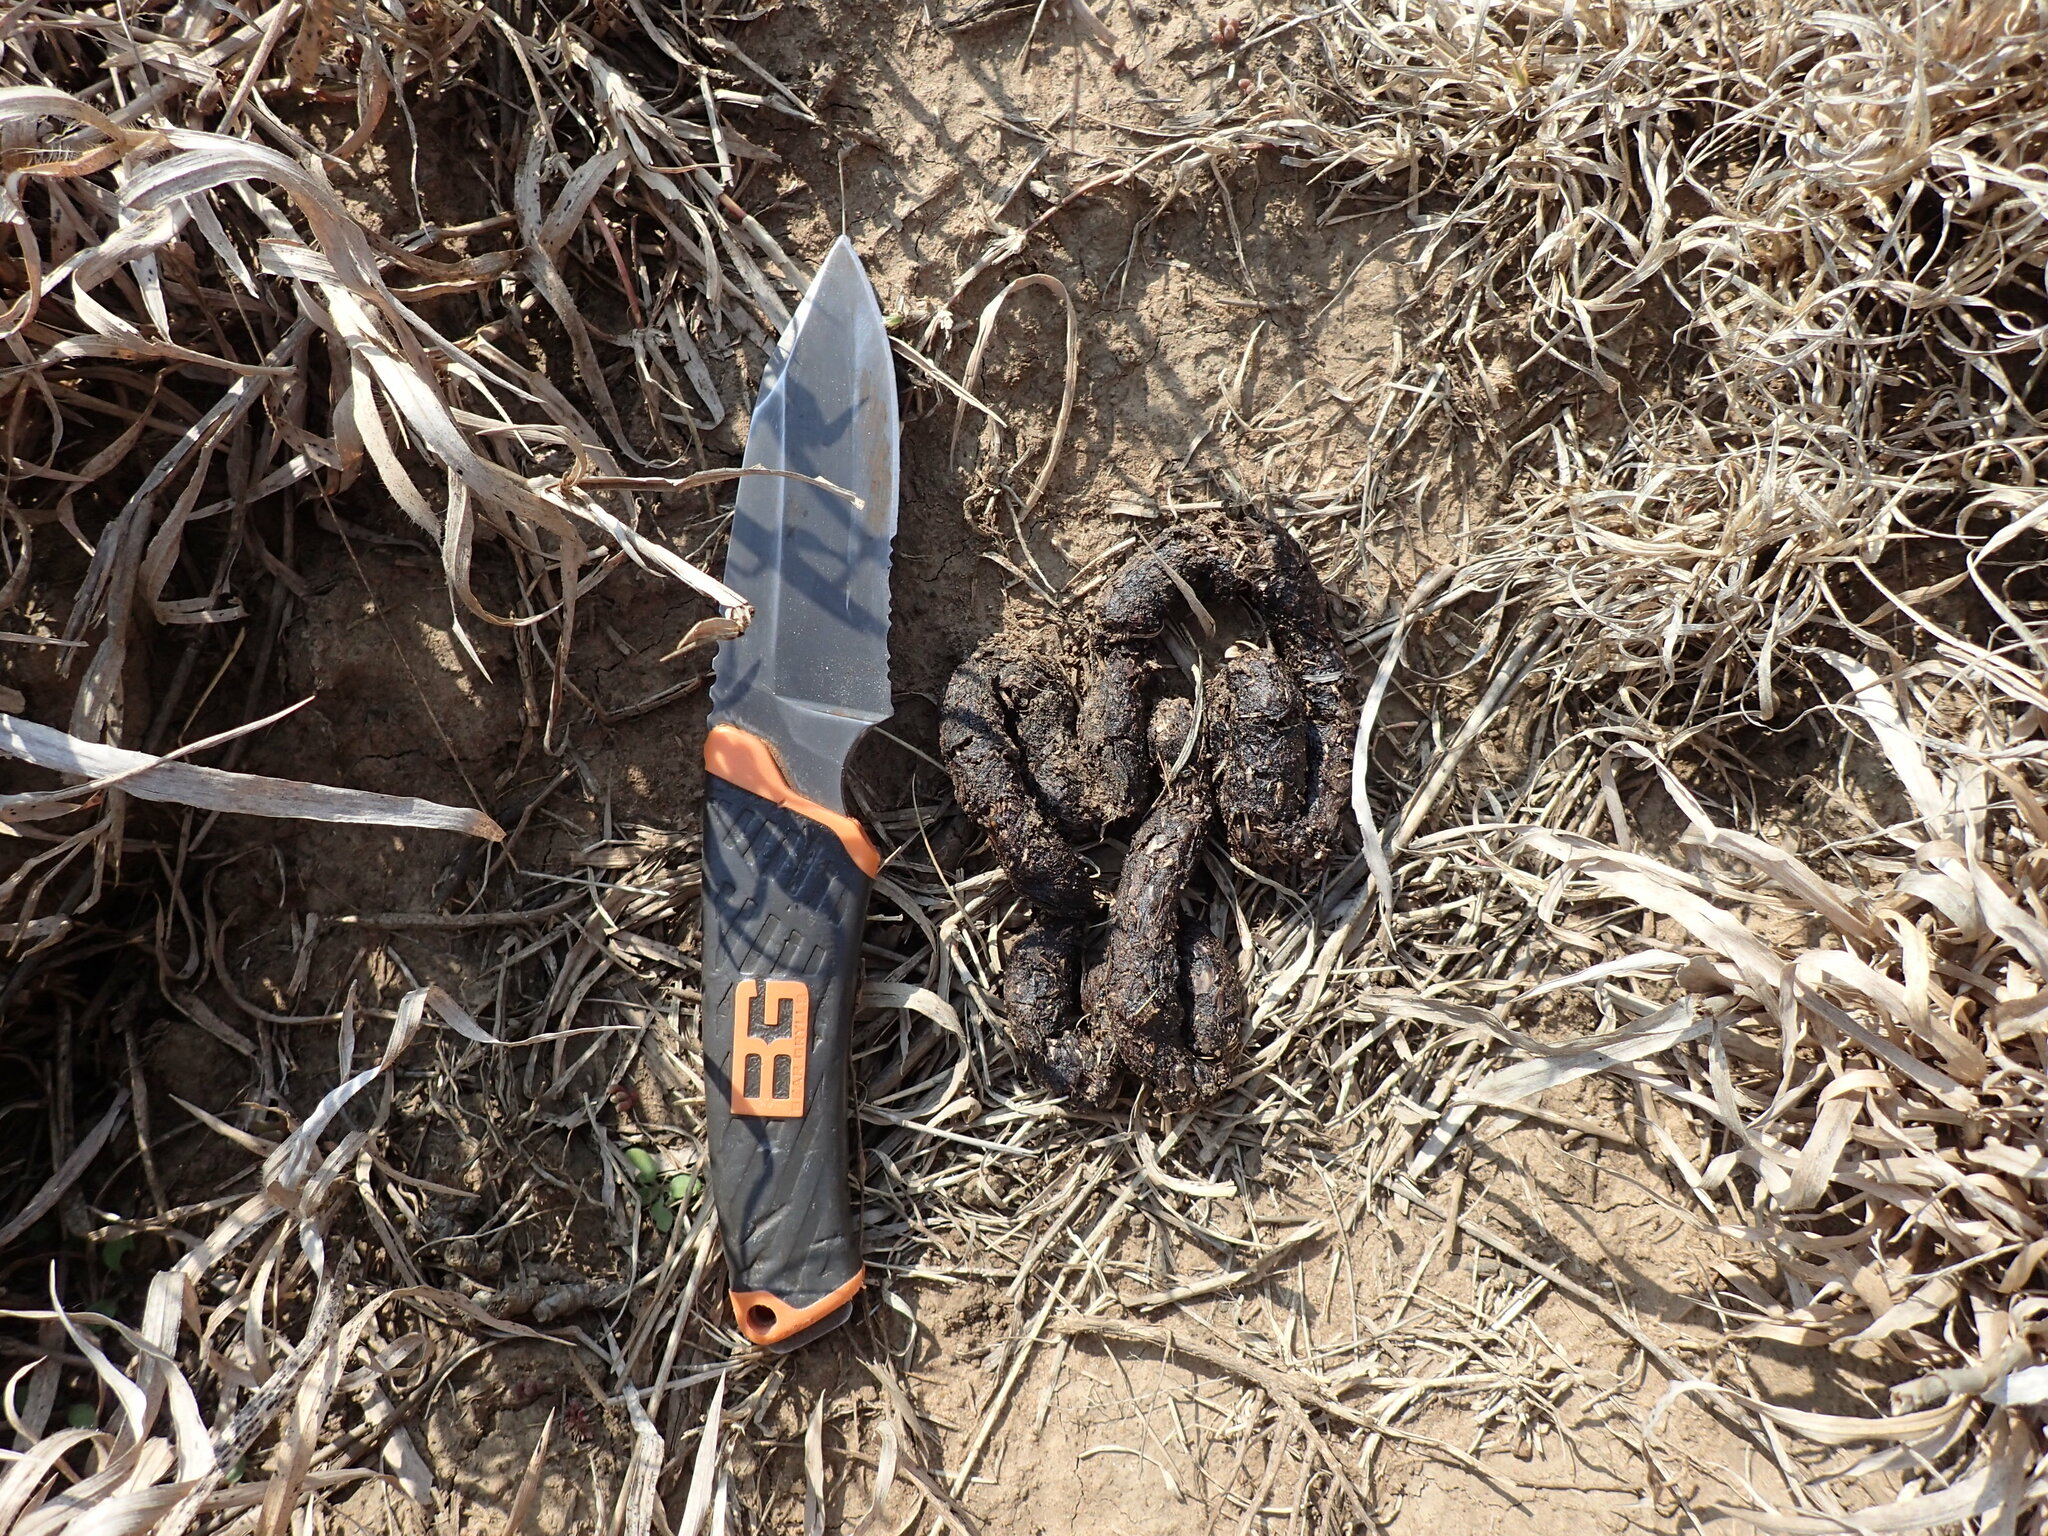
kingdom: Animalia
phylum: Chordata
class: Mammalia
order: Rodentia
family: Hystricidae
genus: Hystrix
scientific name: Hystrix africaeaustralis
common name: Cape porcupine
